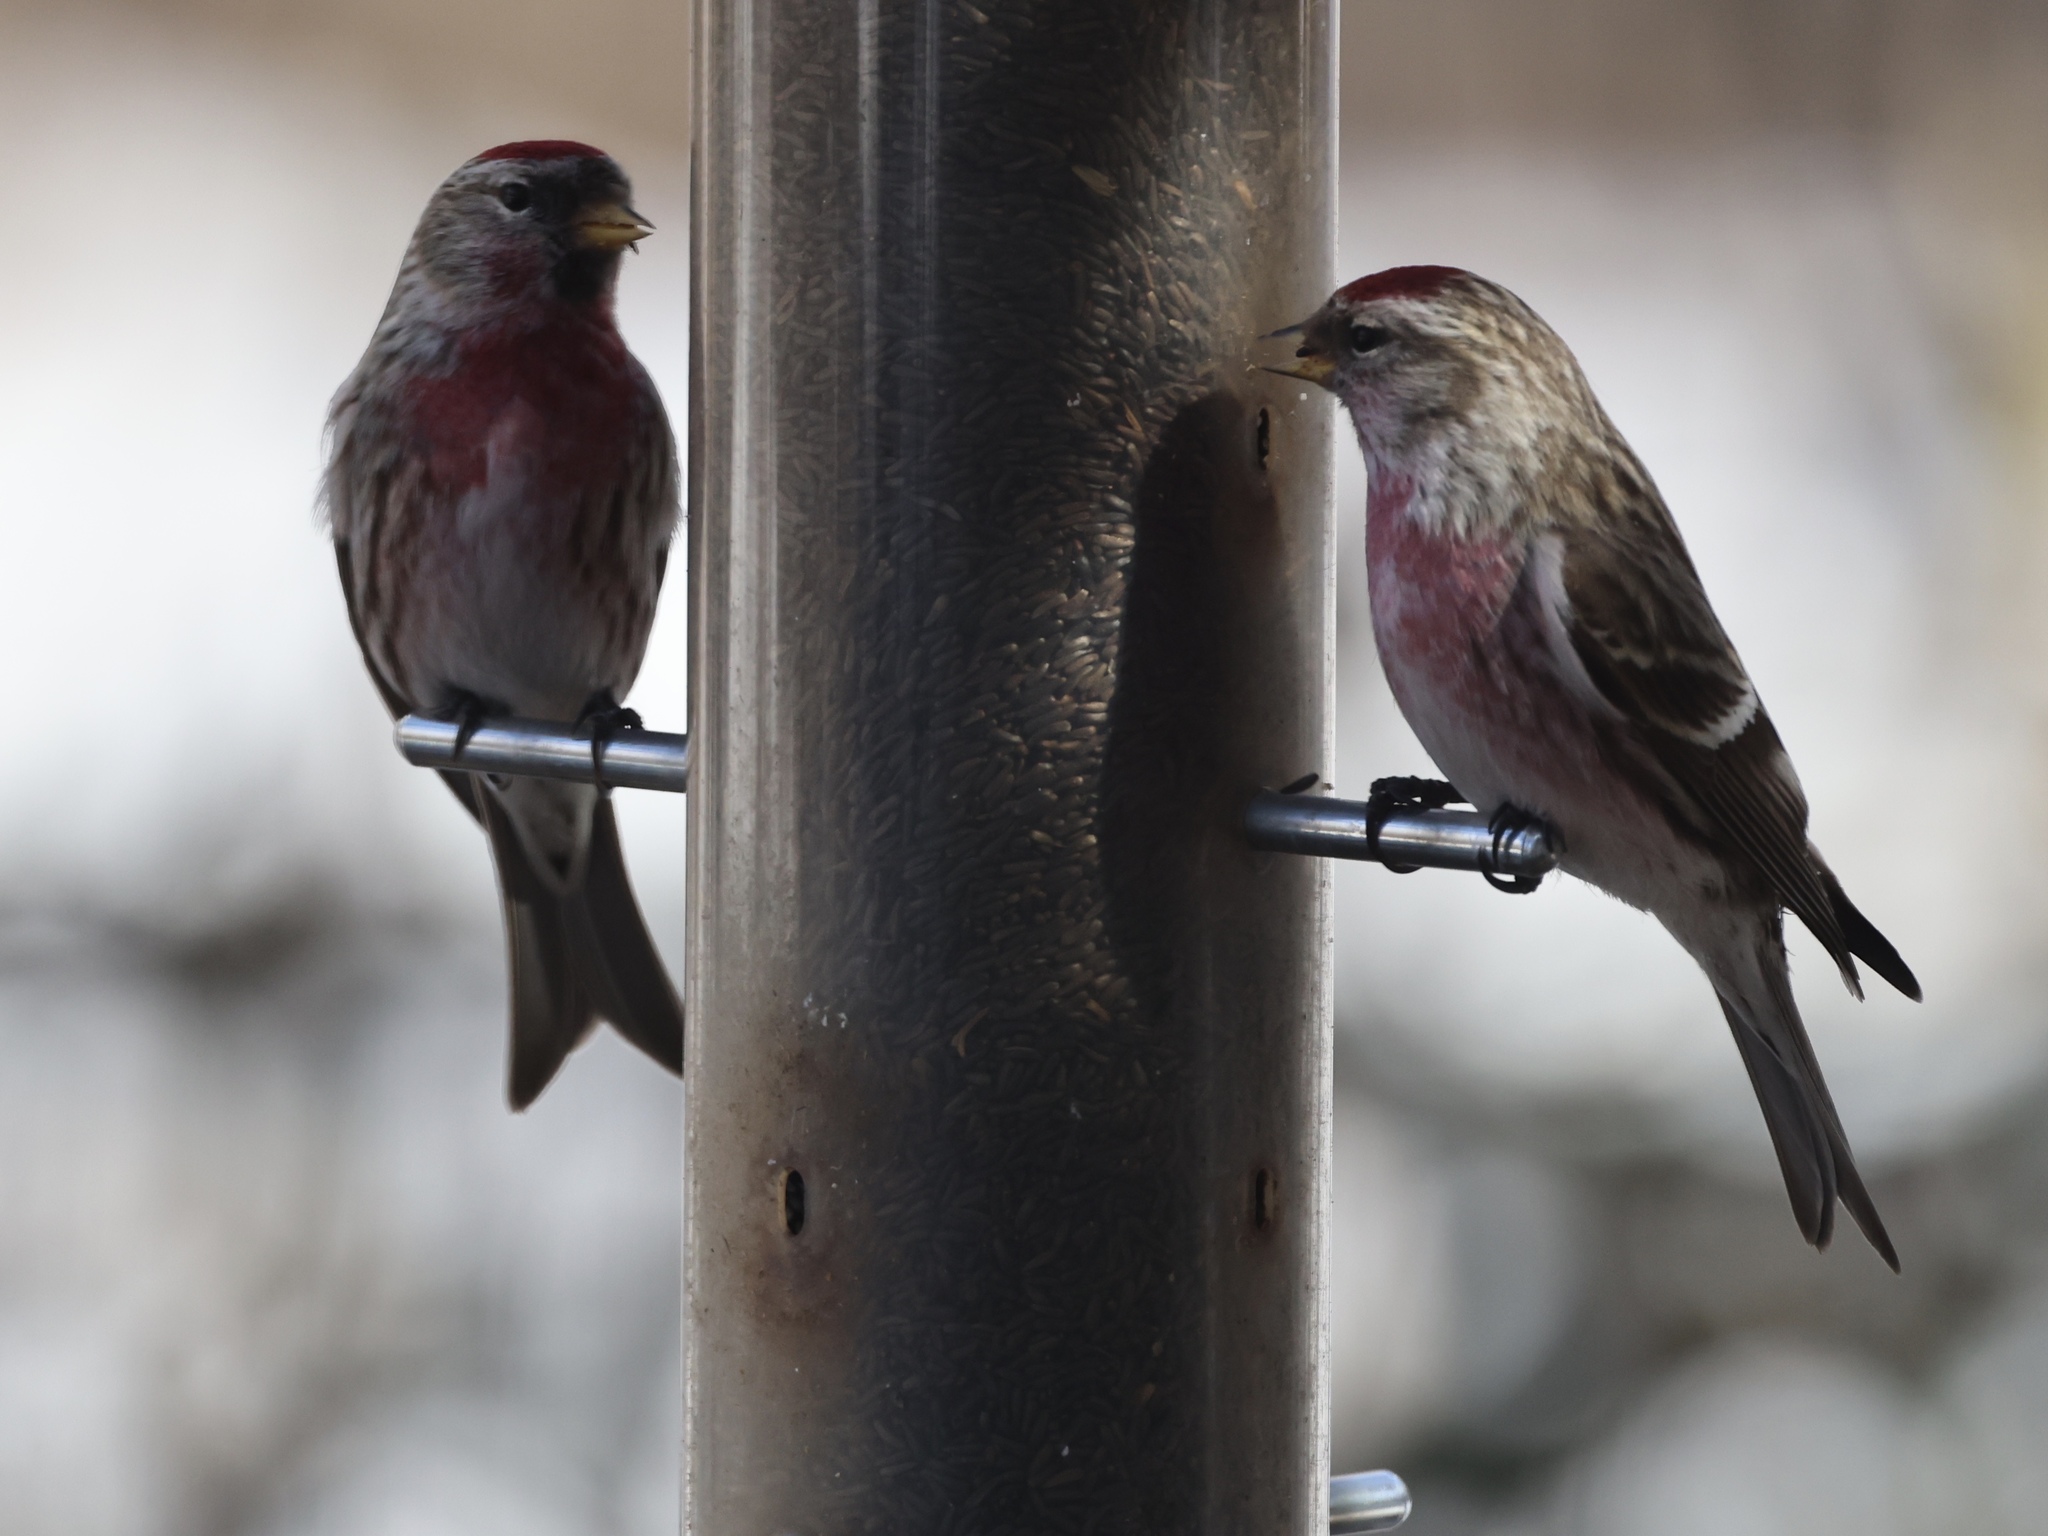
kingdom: Animalia
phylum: Chordata
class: Aves
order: Passeriformes
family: Fringillidae
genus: Acanthis
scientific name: Acanthis flammea
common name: Common redpoll
